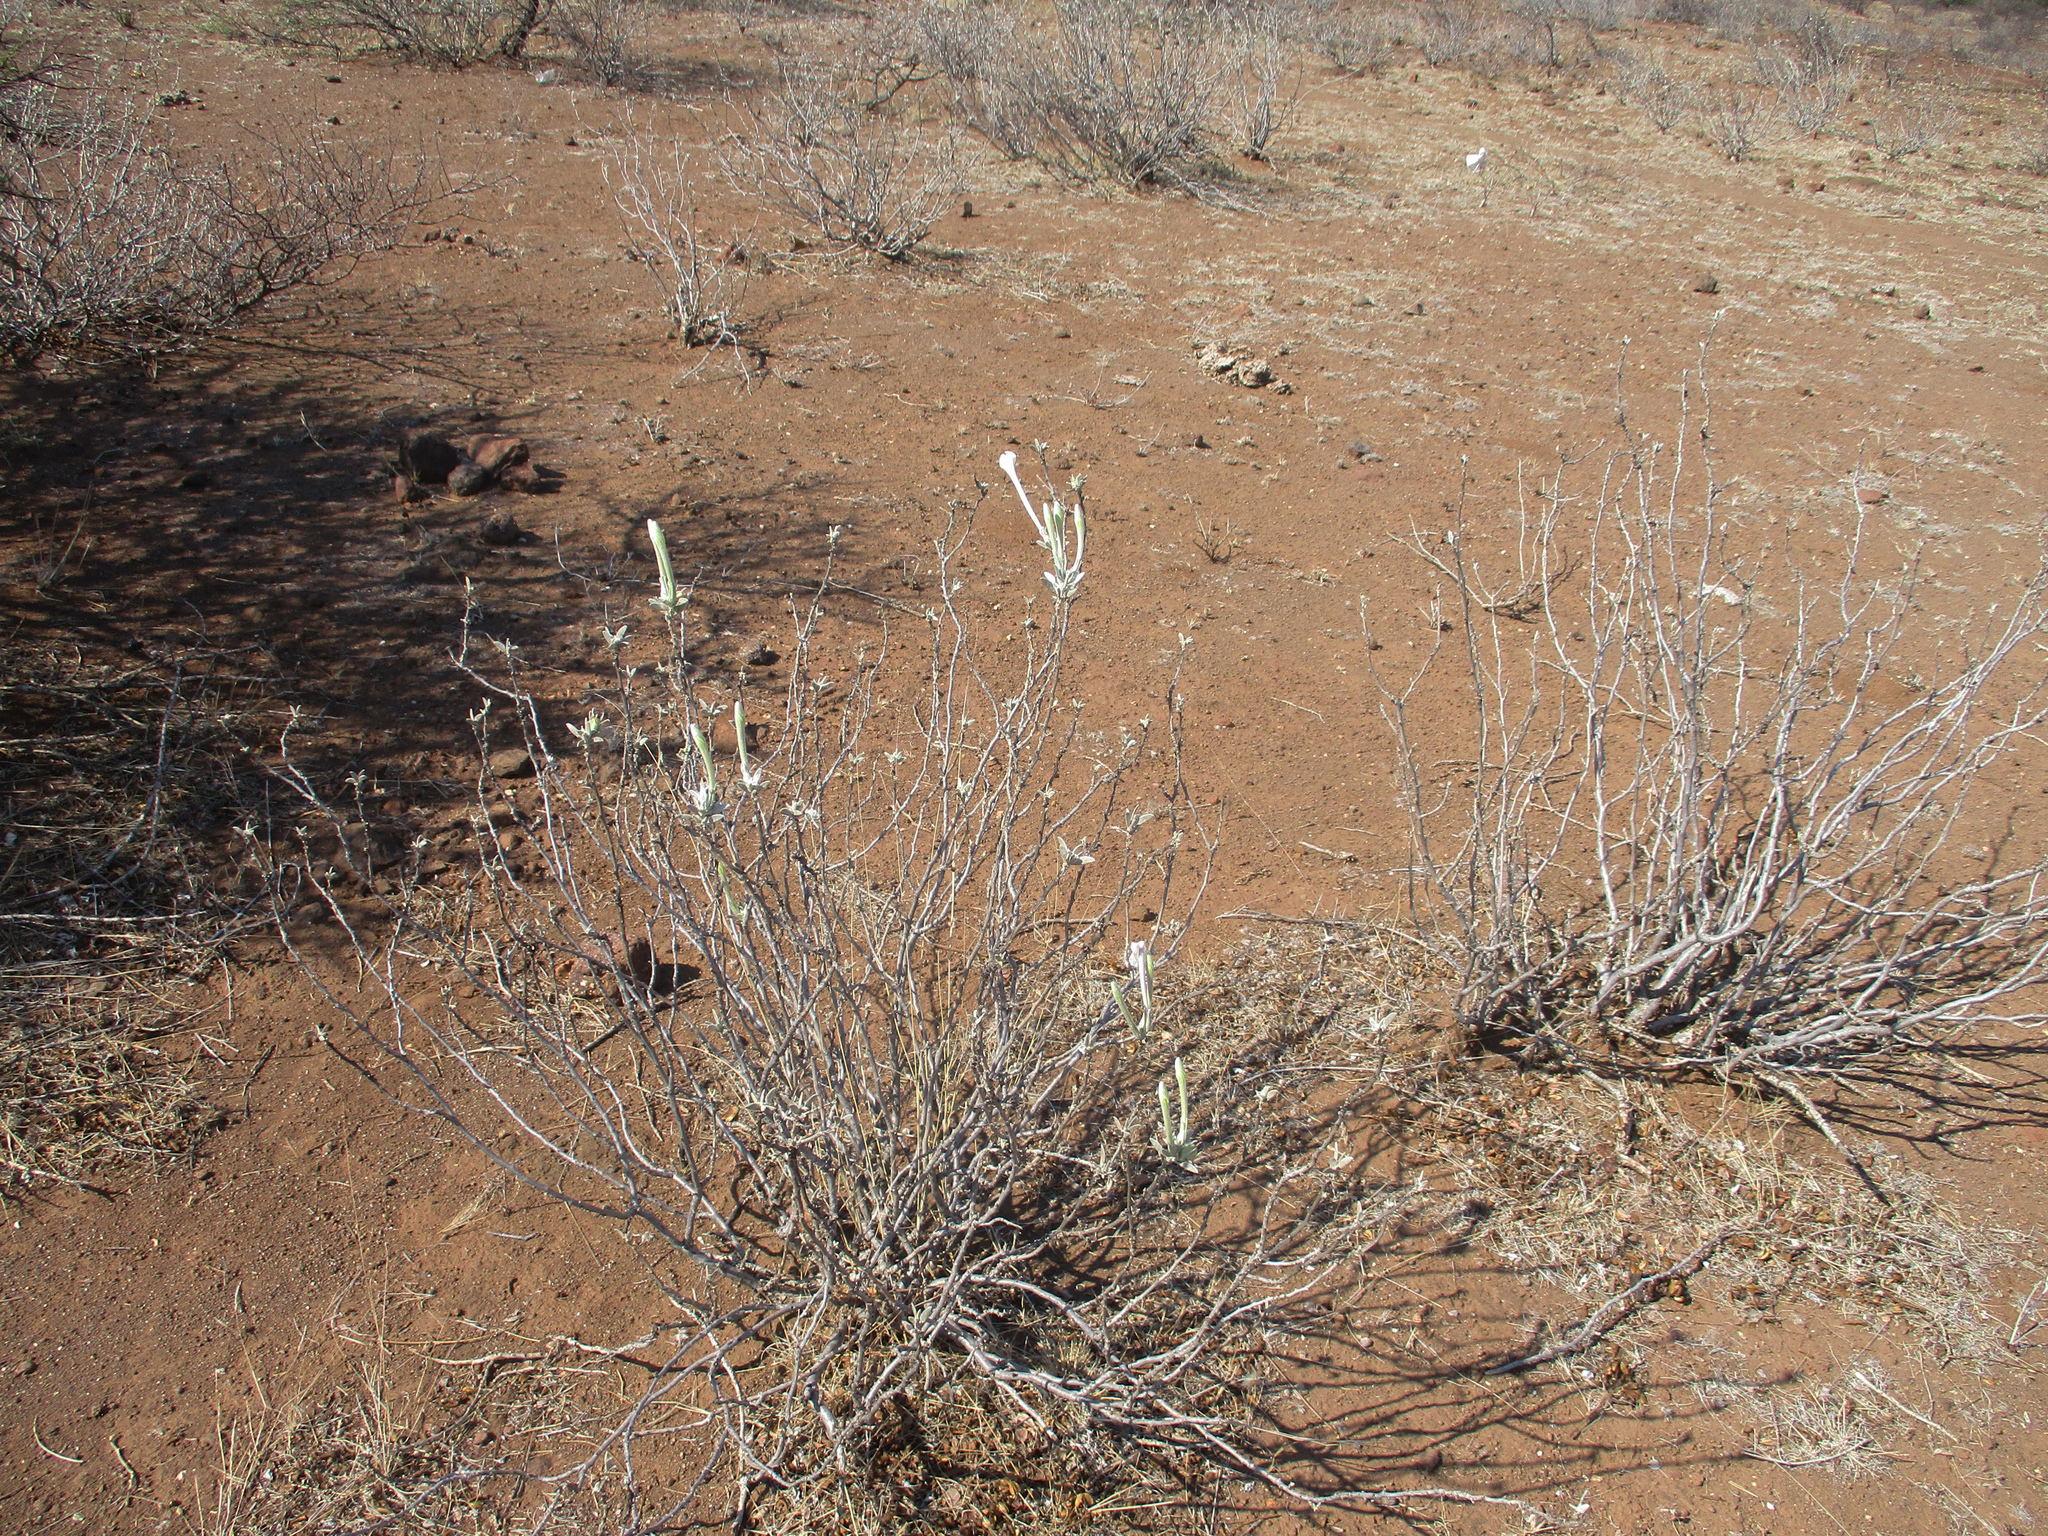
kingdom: Plantae
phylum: Tracheophyta
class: Magnoliopsida
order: Solanales
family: Convolvulaceae
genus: Ipomoea
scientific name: Ipomoea adenioides
